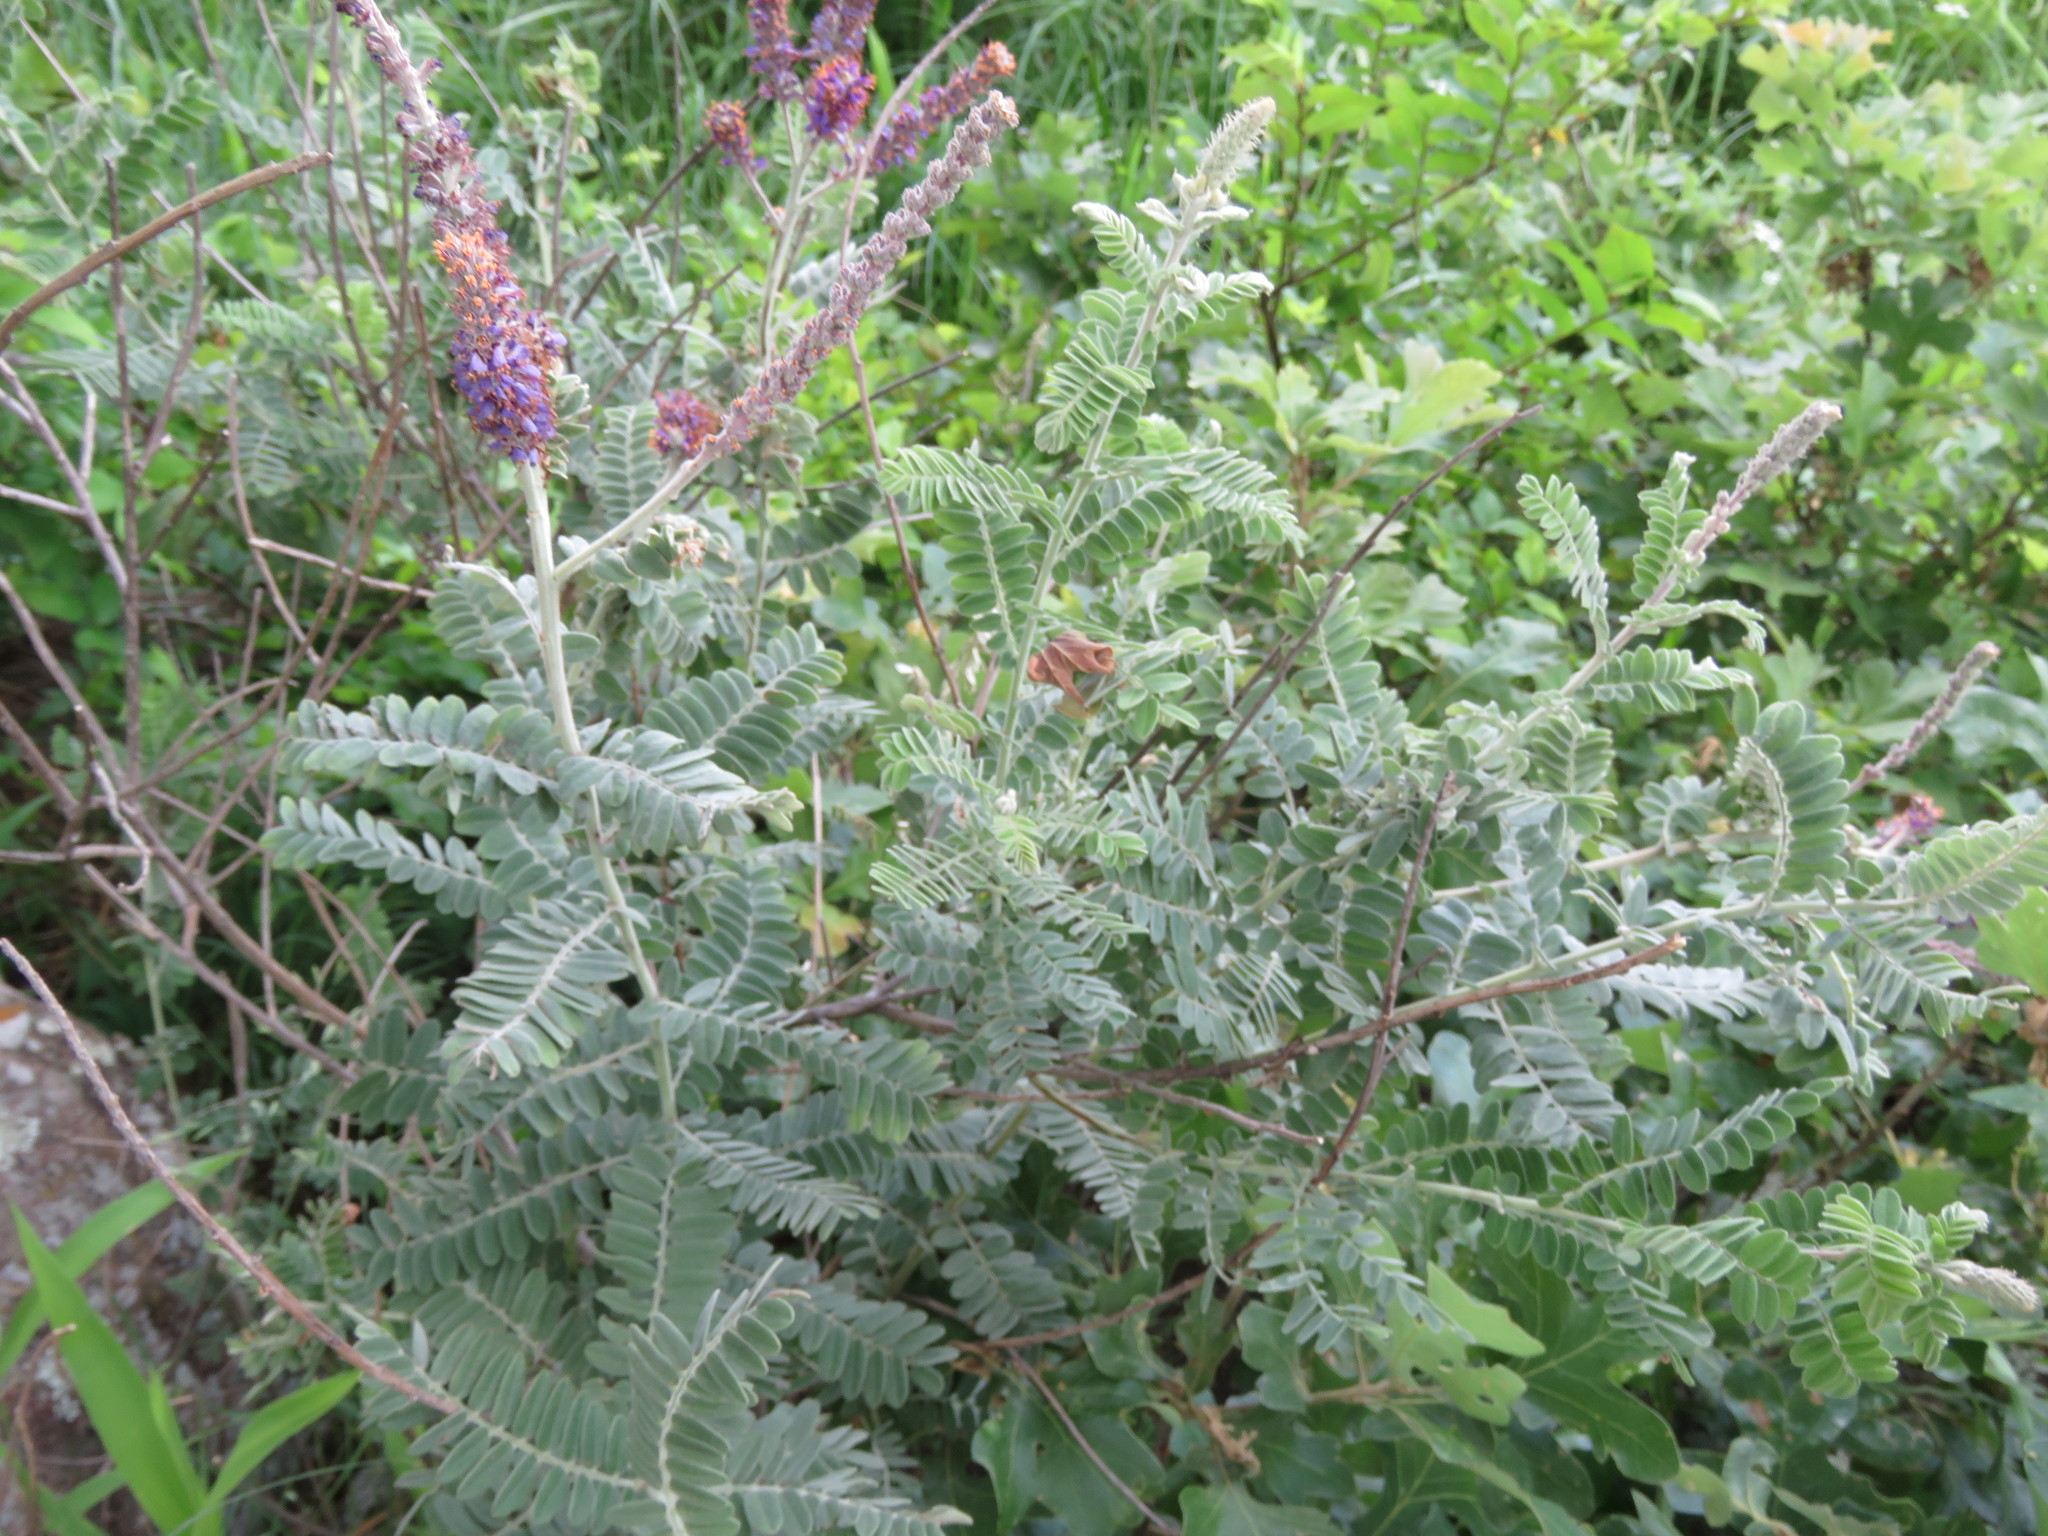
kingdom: Plantae
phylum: Tracheophyta
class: Magnoliopsida
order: Fabales
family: Fabaceae
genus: Amorpha
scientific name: Amorpha canescens
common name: Leadplant
